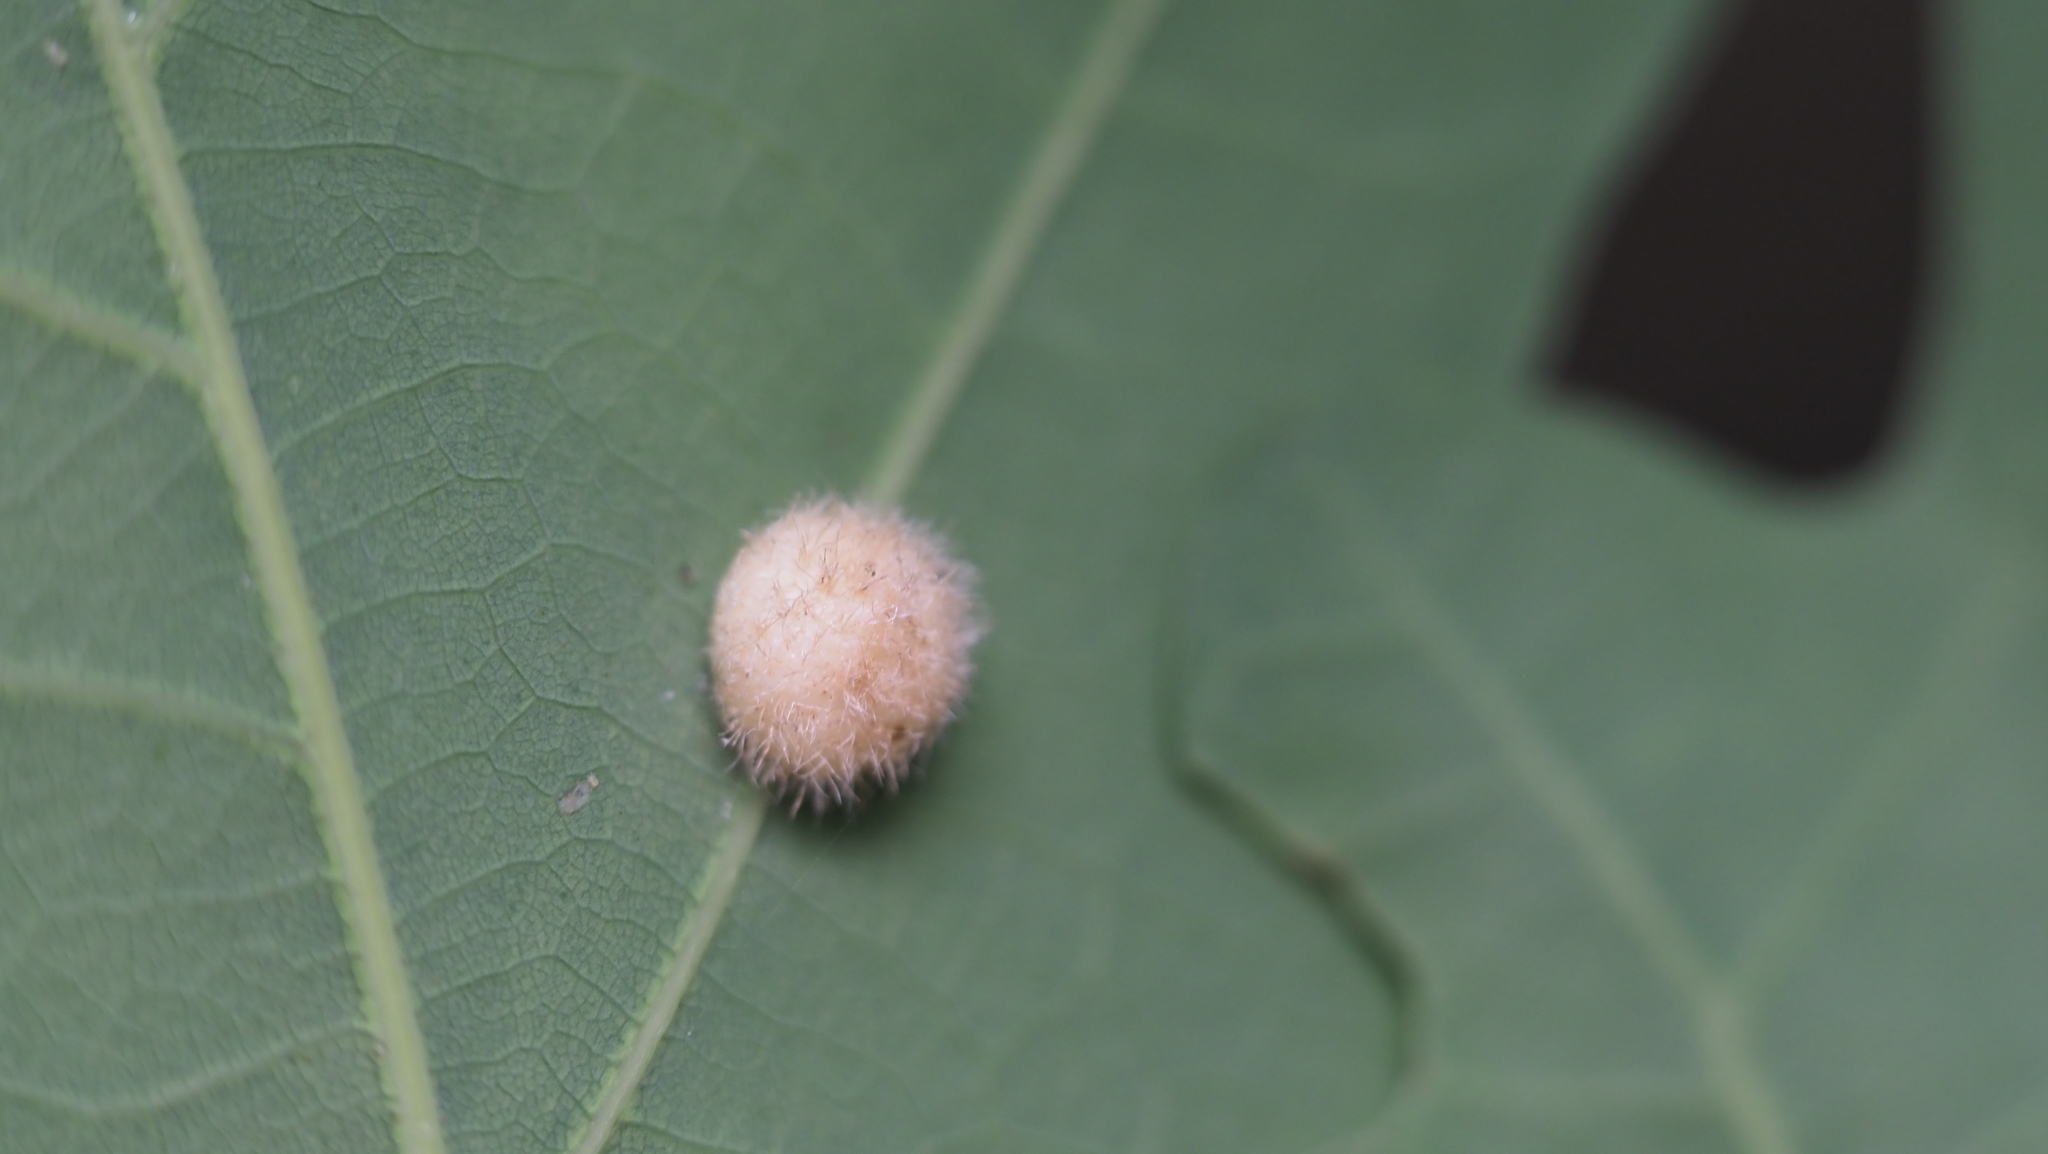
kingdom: Animalia
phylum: Arthropoda
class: Insecta
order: Hymenoptera
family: Cynipidae
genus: Philonix
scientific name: Philonix fulvicollis
